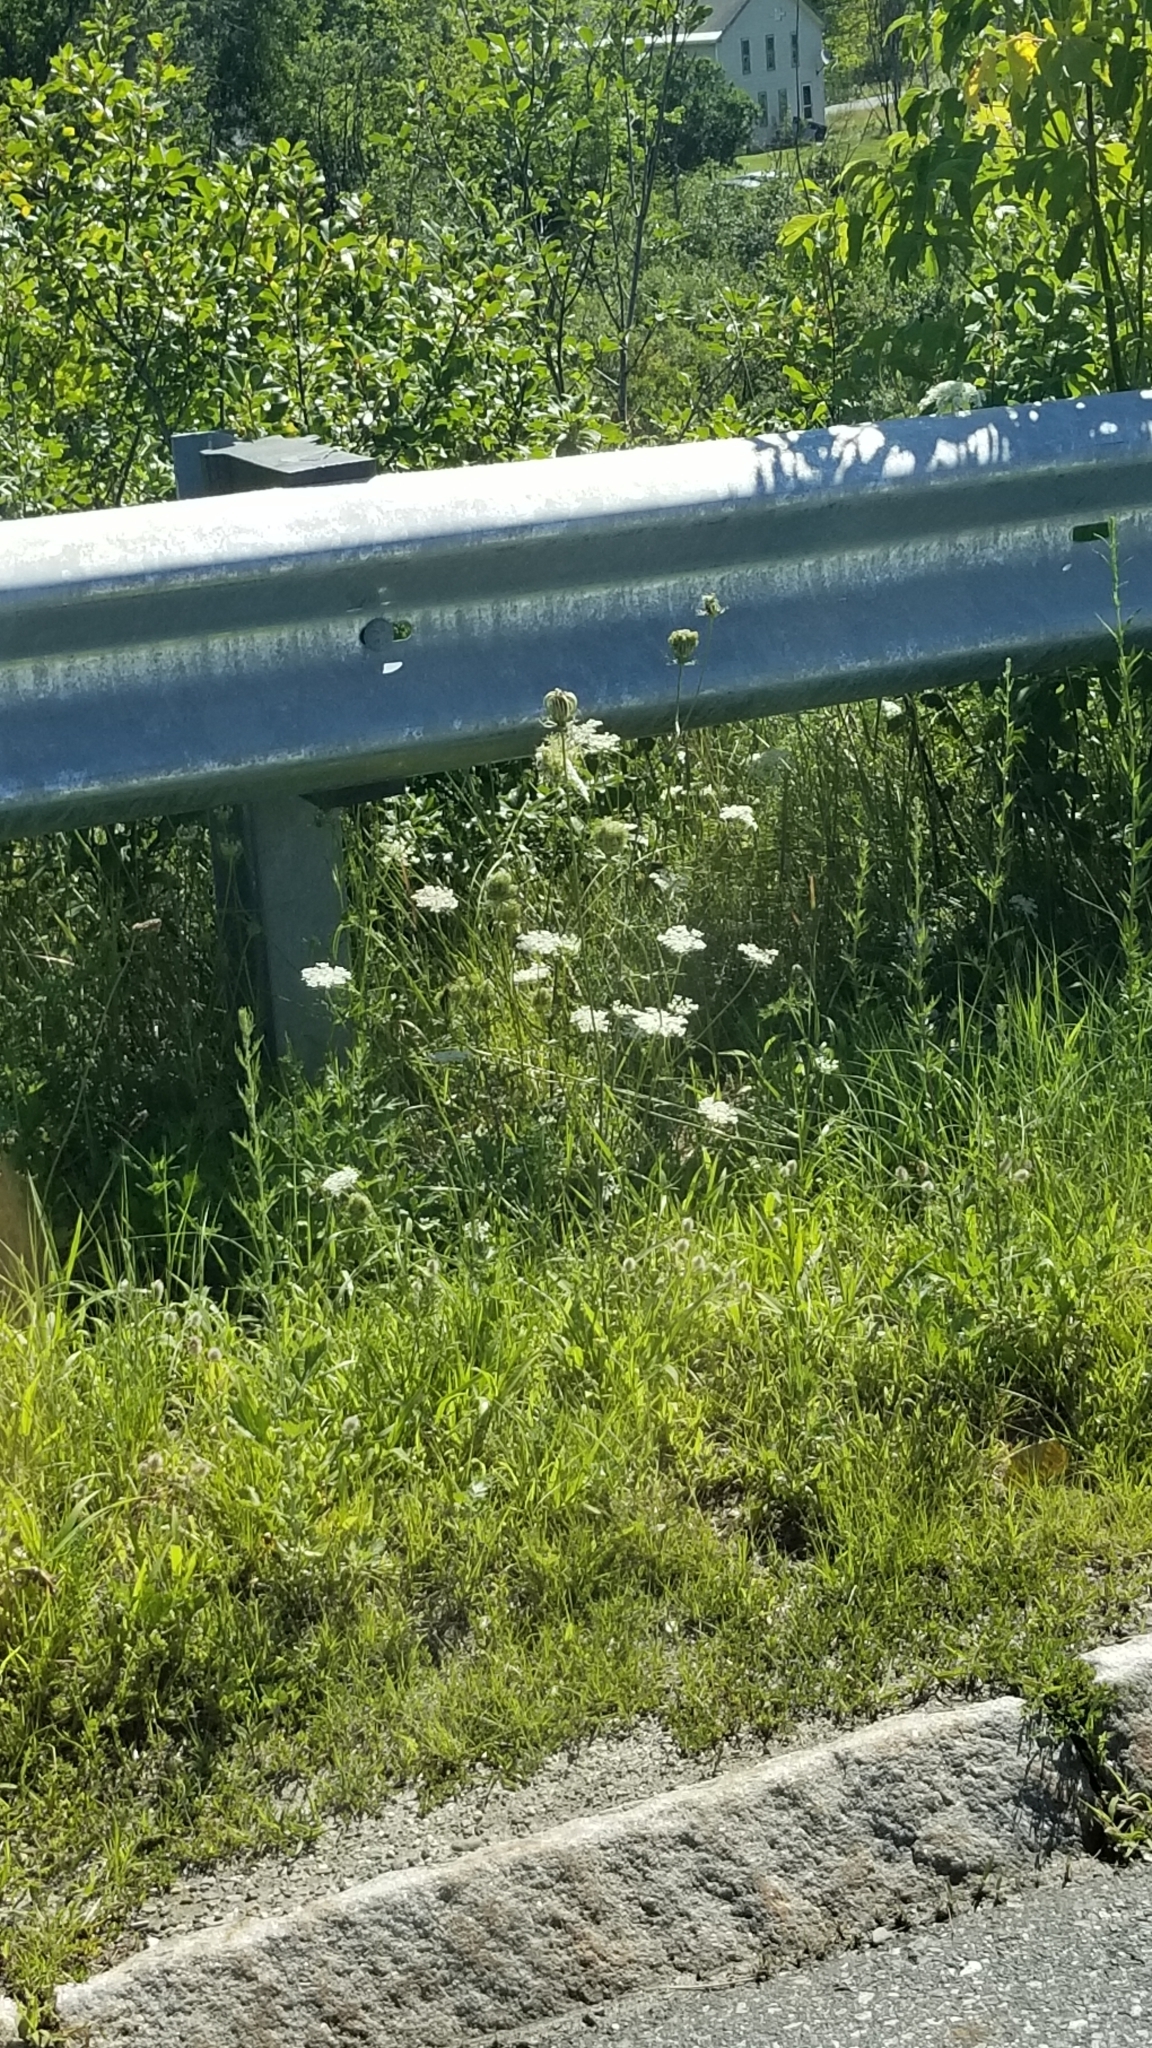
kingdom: Plantae
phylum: Tracheophyta
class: Magnoliopsida
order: Apiales
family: Apiaceae
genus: Daucus
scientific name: Daucus carota
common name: Wild carrot
